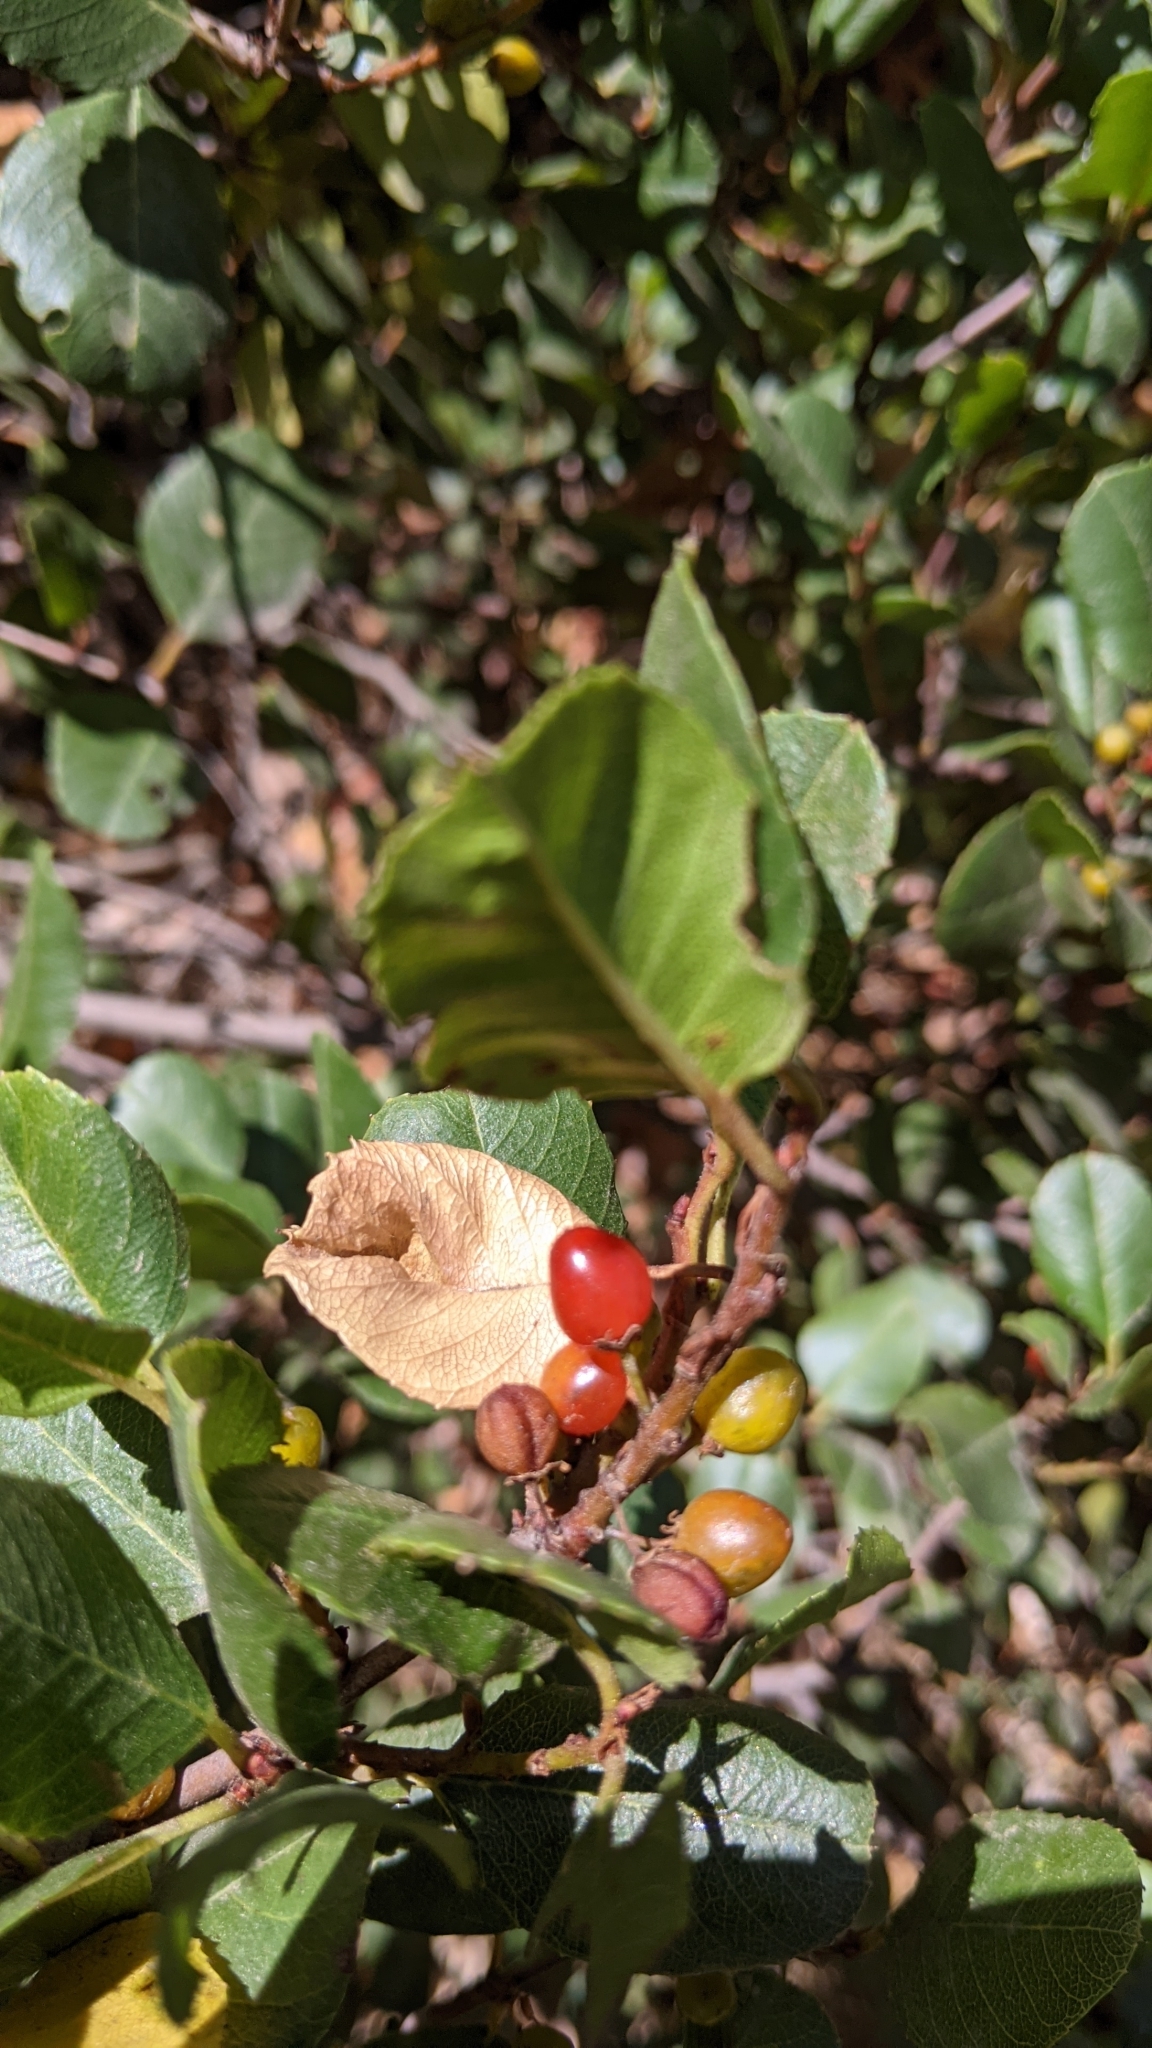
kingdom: Plantae
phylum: Tracheophyta
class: Magnoliopsida
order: Rosales
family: Rhamnaceae
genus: Endotropis
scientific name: Endotropis crocea
